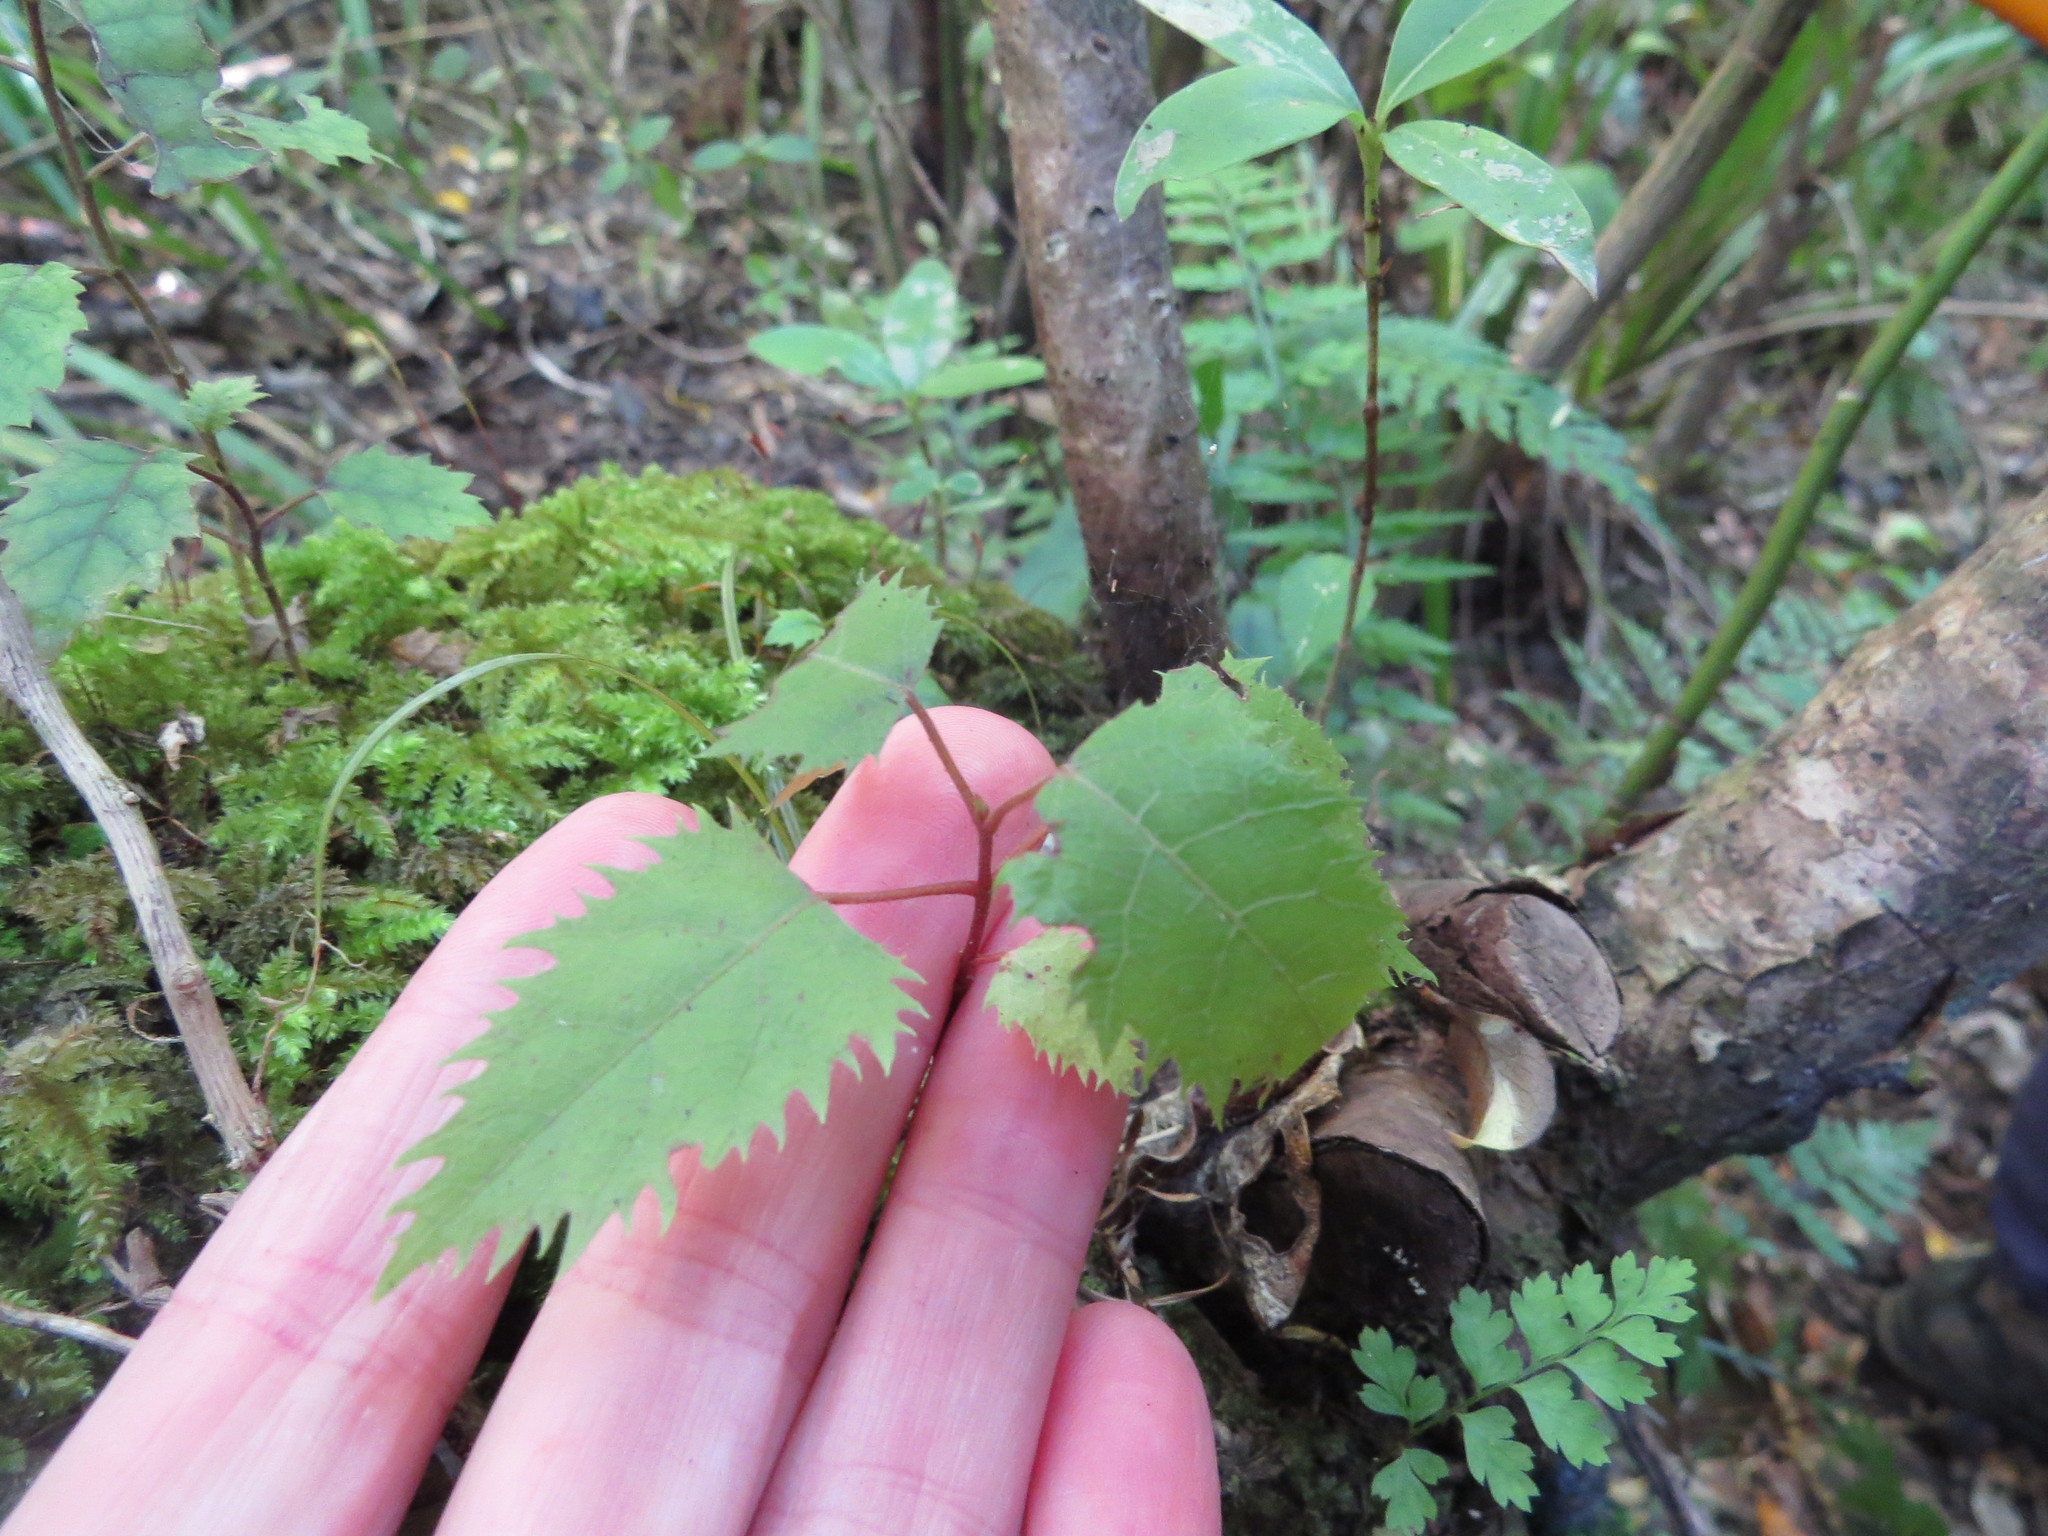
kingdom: Plantae
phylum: Tracheophyta
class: Magnoliopsida
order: Oxalidales
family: Elaeocarpaceae
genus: Aristotelia
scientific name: Aristotelia serrata
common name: New zealand wineberry
